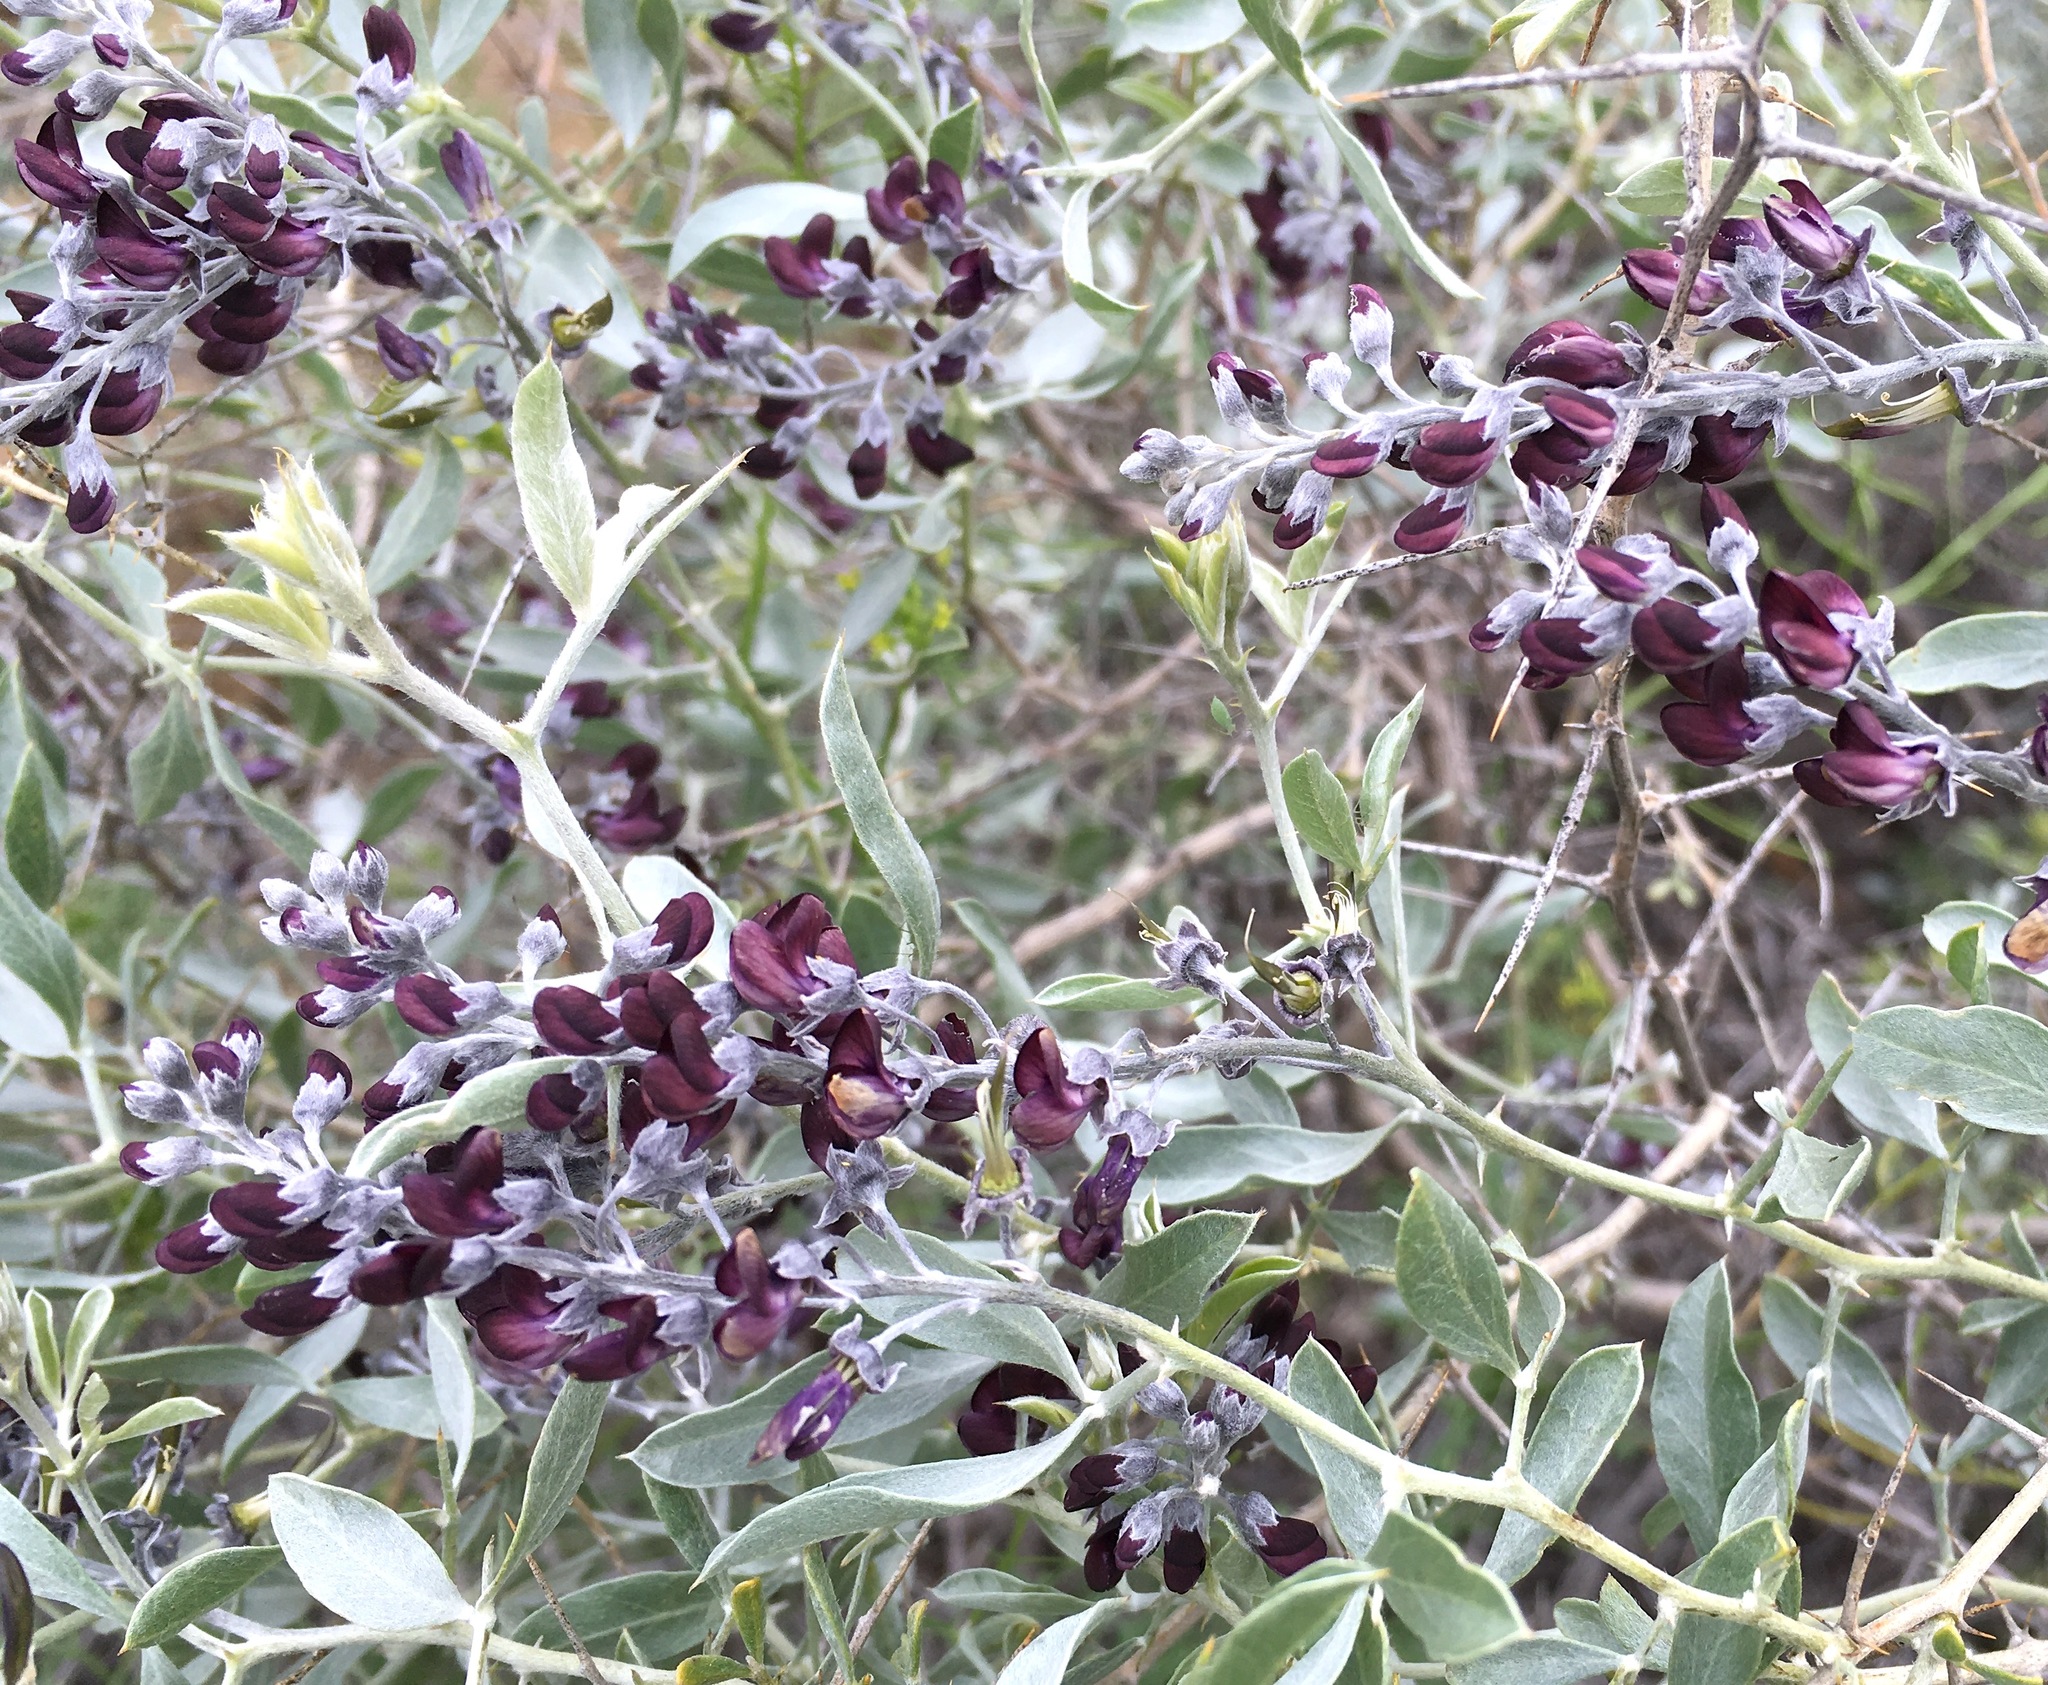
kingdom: Plantae
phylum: Tracheophyta
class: Magnoliopsida
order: Fabales
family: Fabaceae
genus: Ammodendron
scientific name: Ammodendron bifolium
